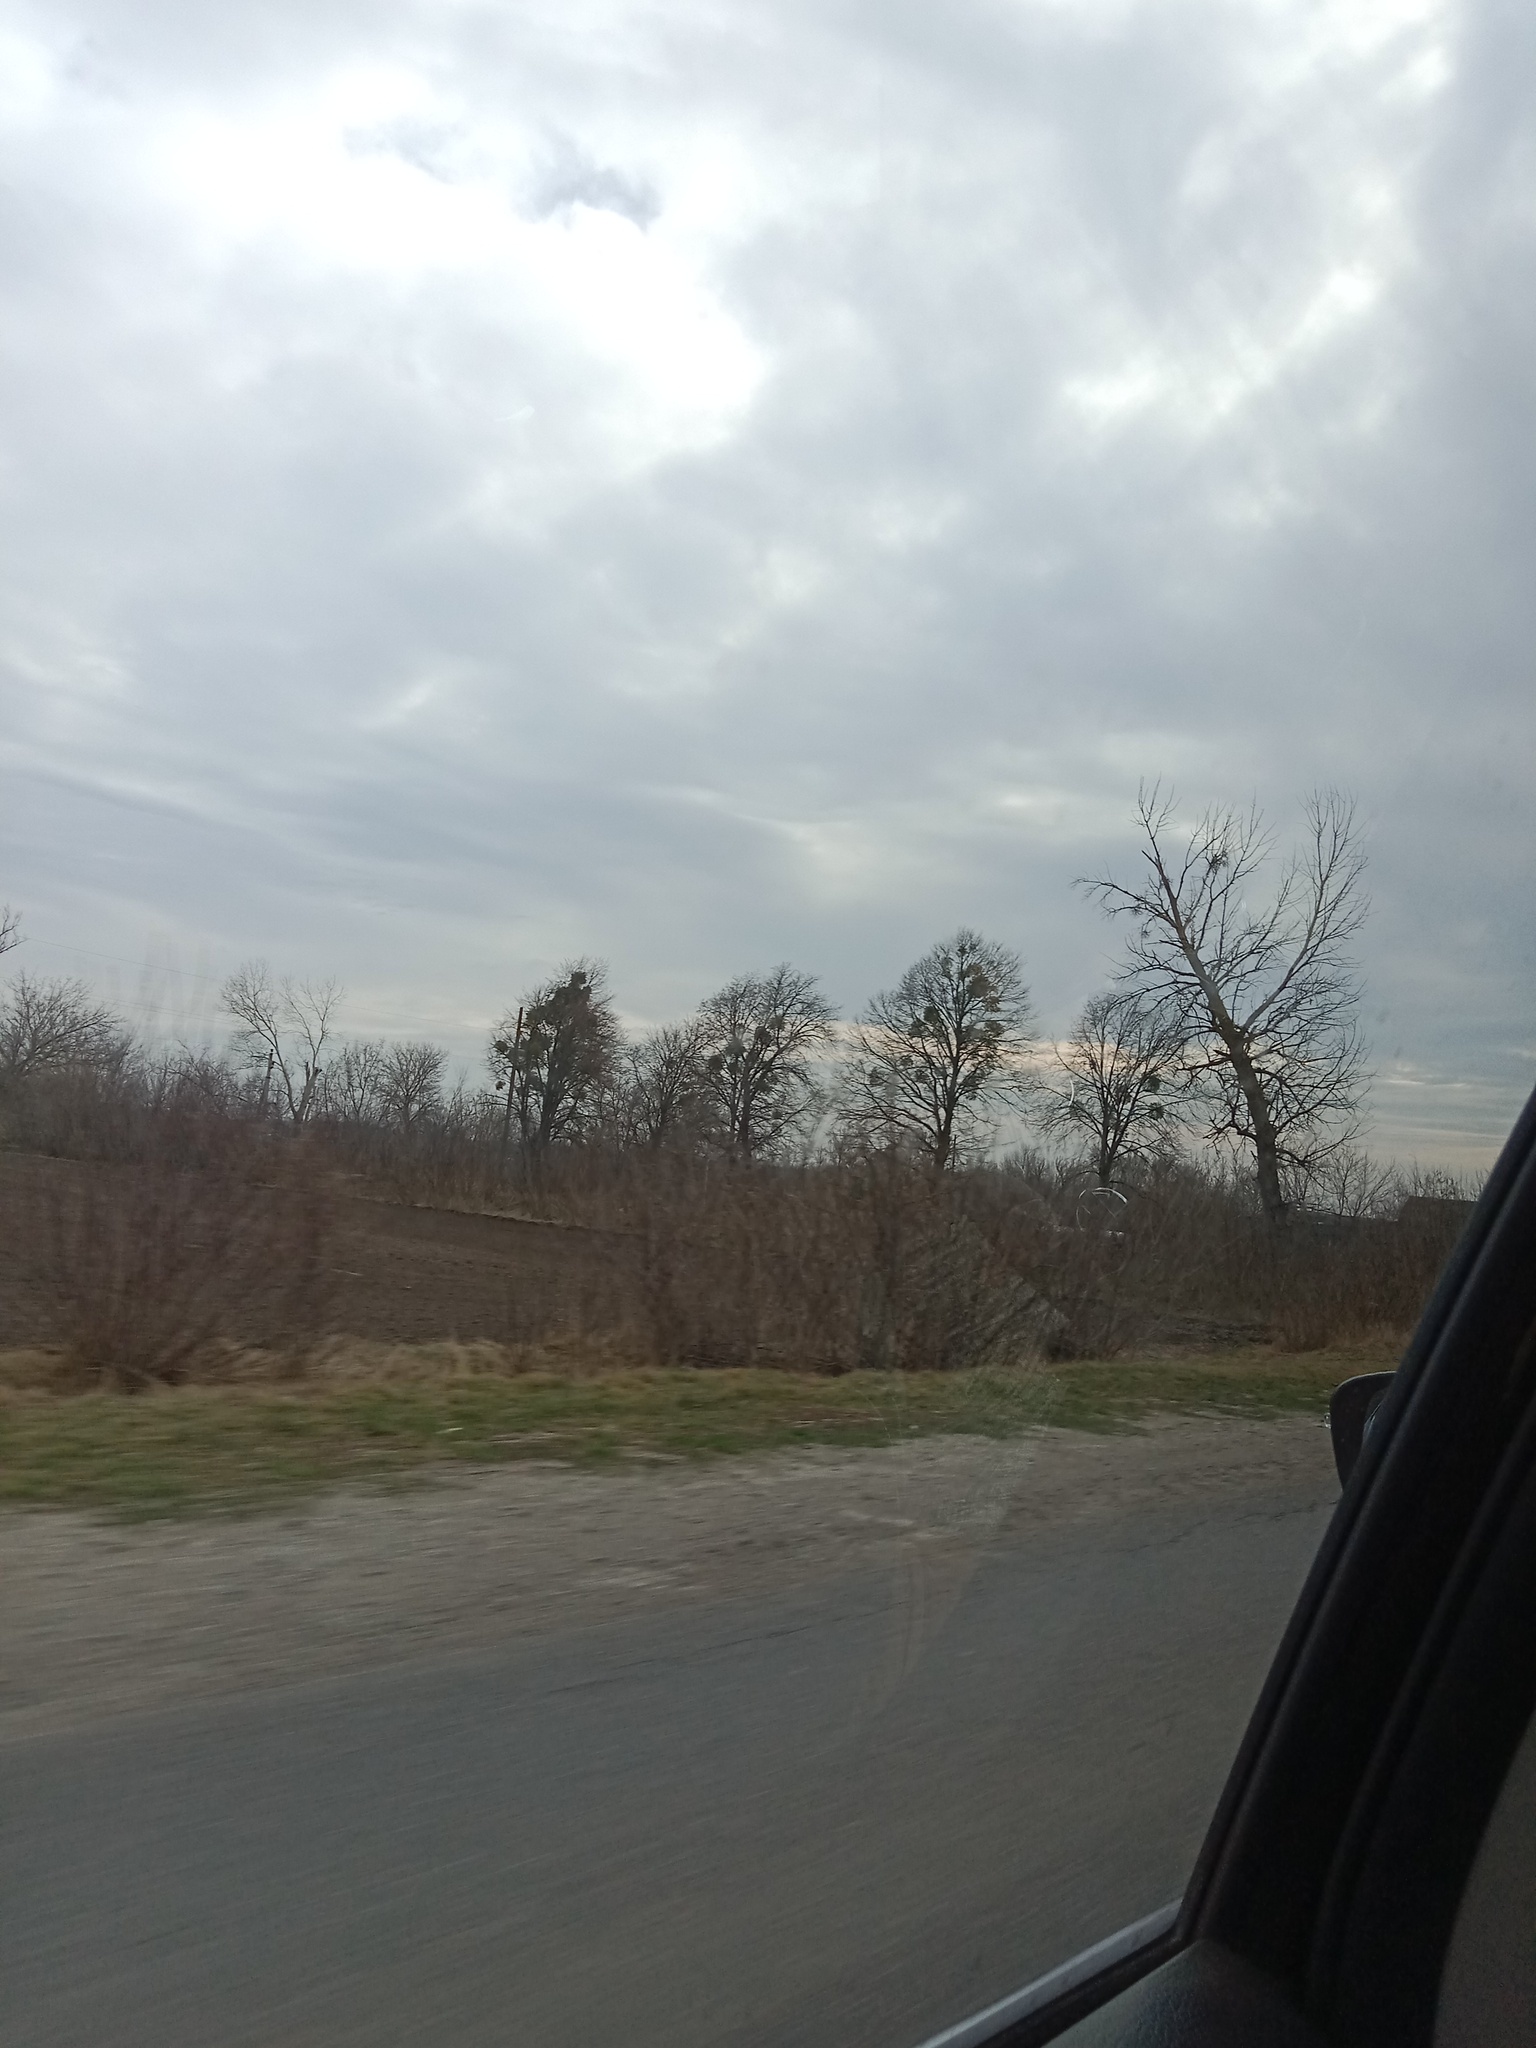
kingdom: Plantae
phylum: Tracheophyta
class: Magnoliopsida
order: Santalales
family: Viscaceae
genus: Viscum
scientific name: Viscum album
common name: Mistletoe
